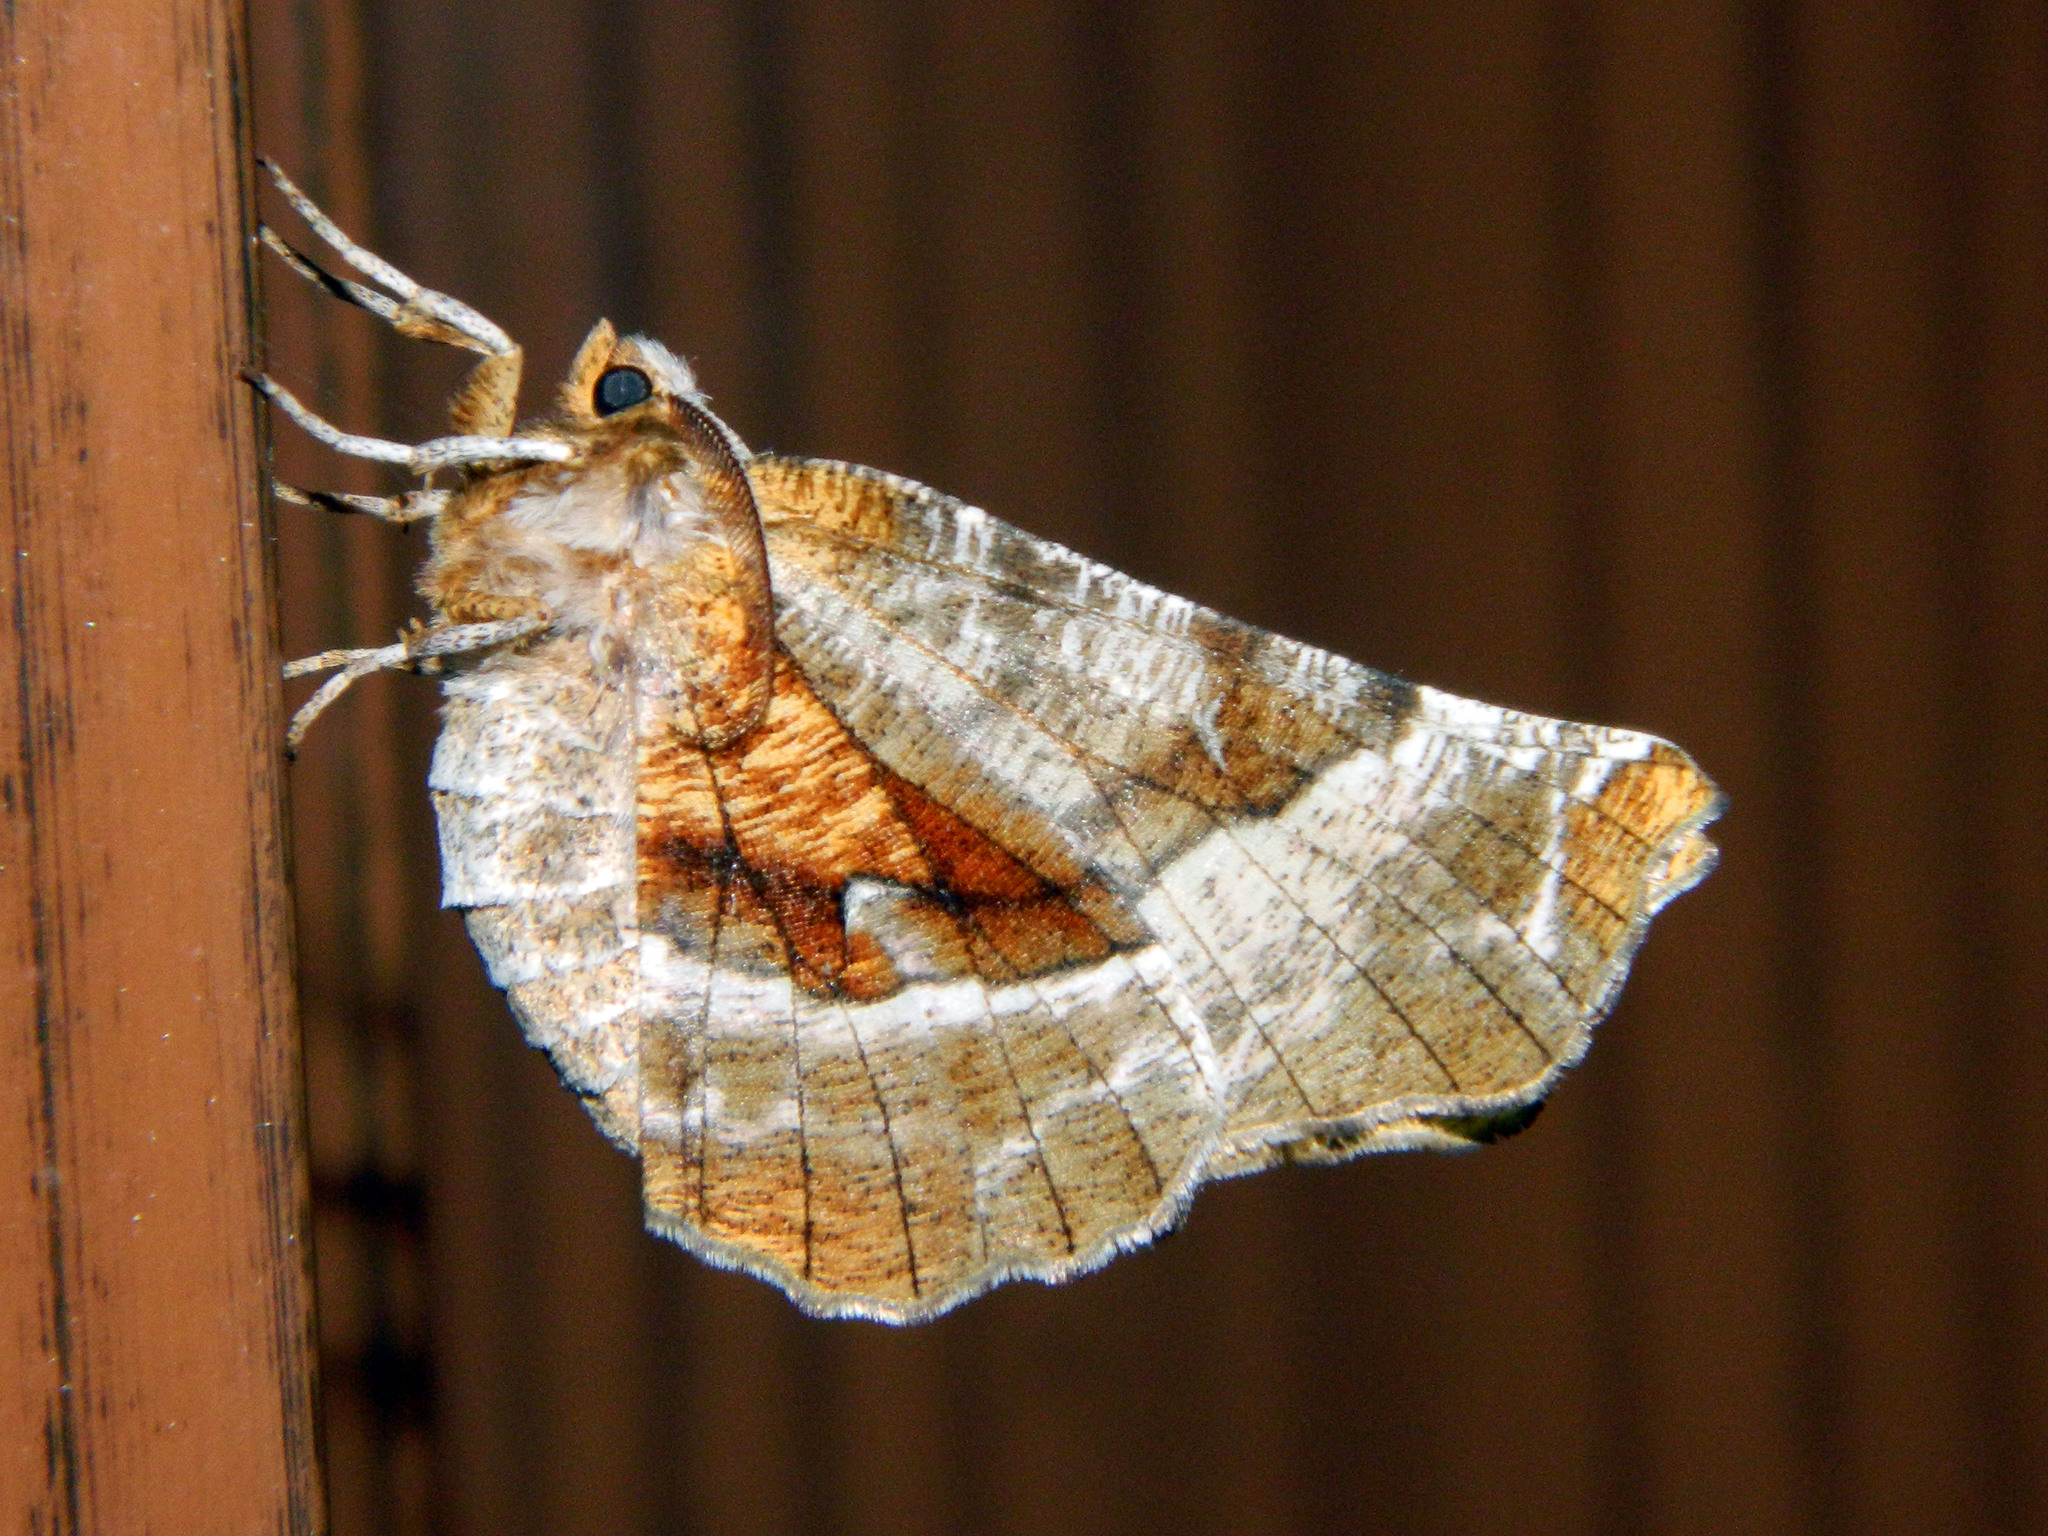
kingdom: Animalia
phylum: Arthropoda
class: Insecta
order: Lepidoptera
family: Geometridae
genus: Selenia
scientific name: Selenia kentaria
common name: Kent's geometer
